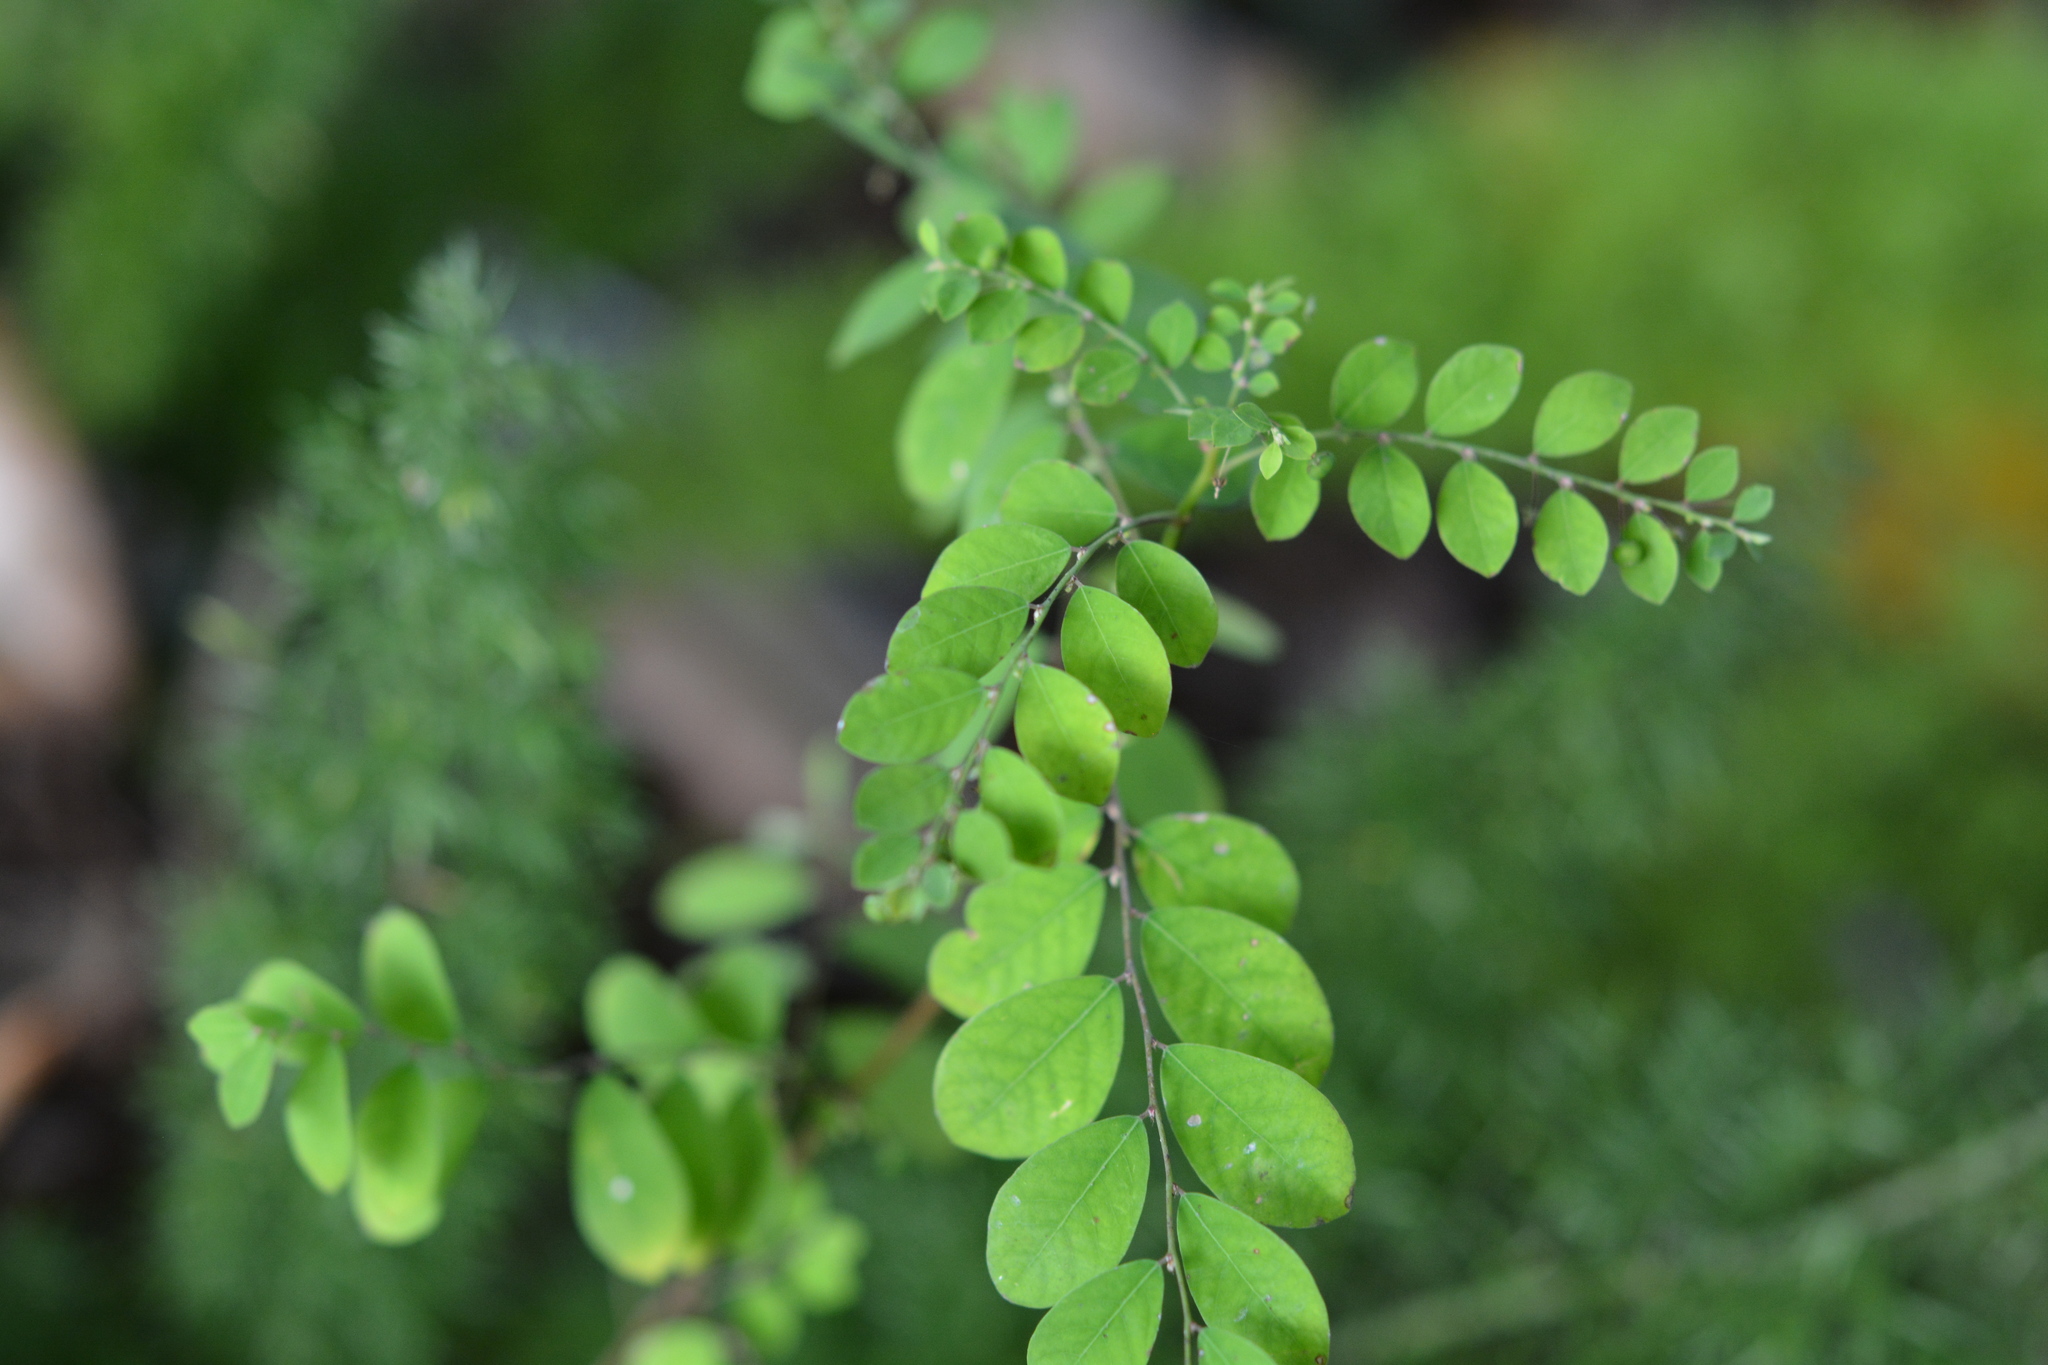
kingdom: Plantae
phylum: Tracheophyta
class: Magnoliopsida
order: Malpighiales
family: Phyllanthaceae
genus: Phyllanthus
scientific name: Phyllanthus tenellus
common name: Mascarene island leaf-flower
